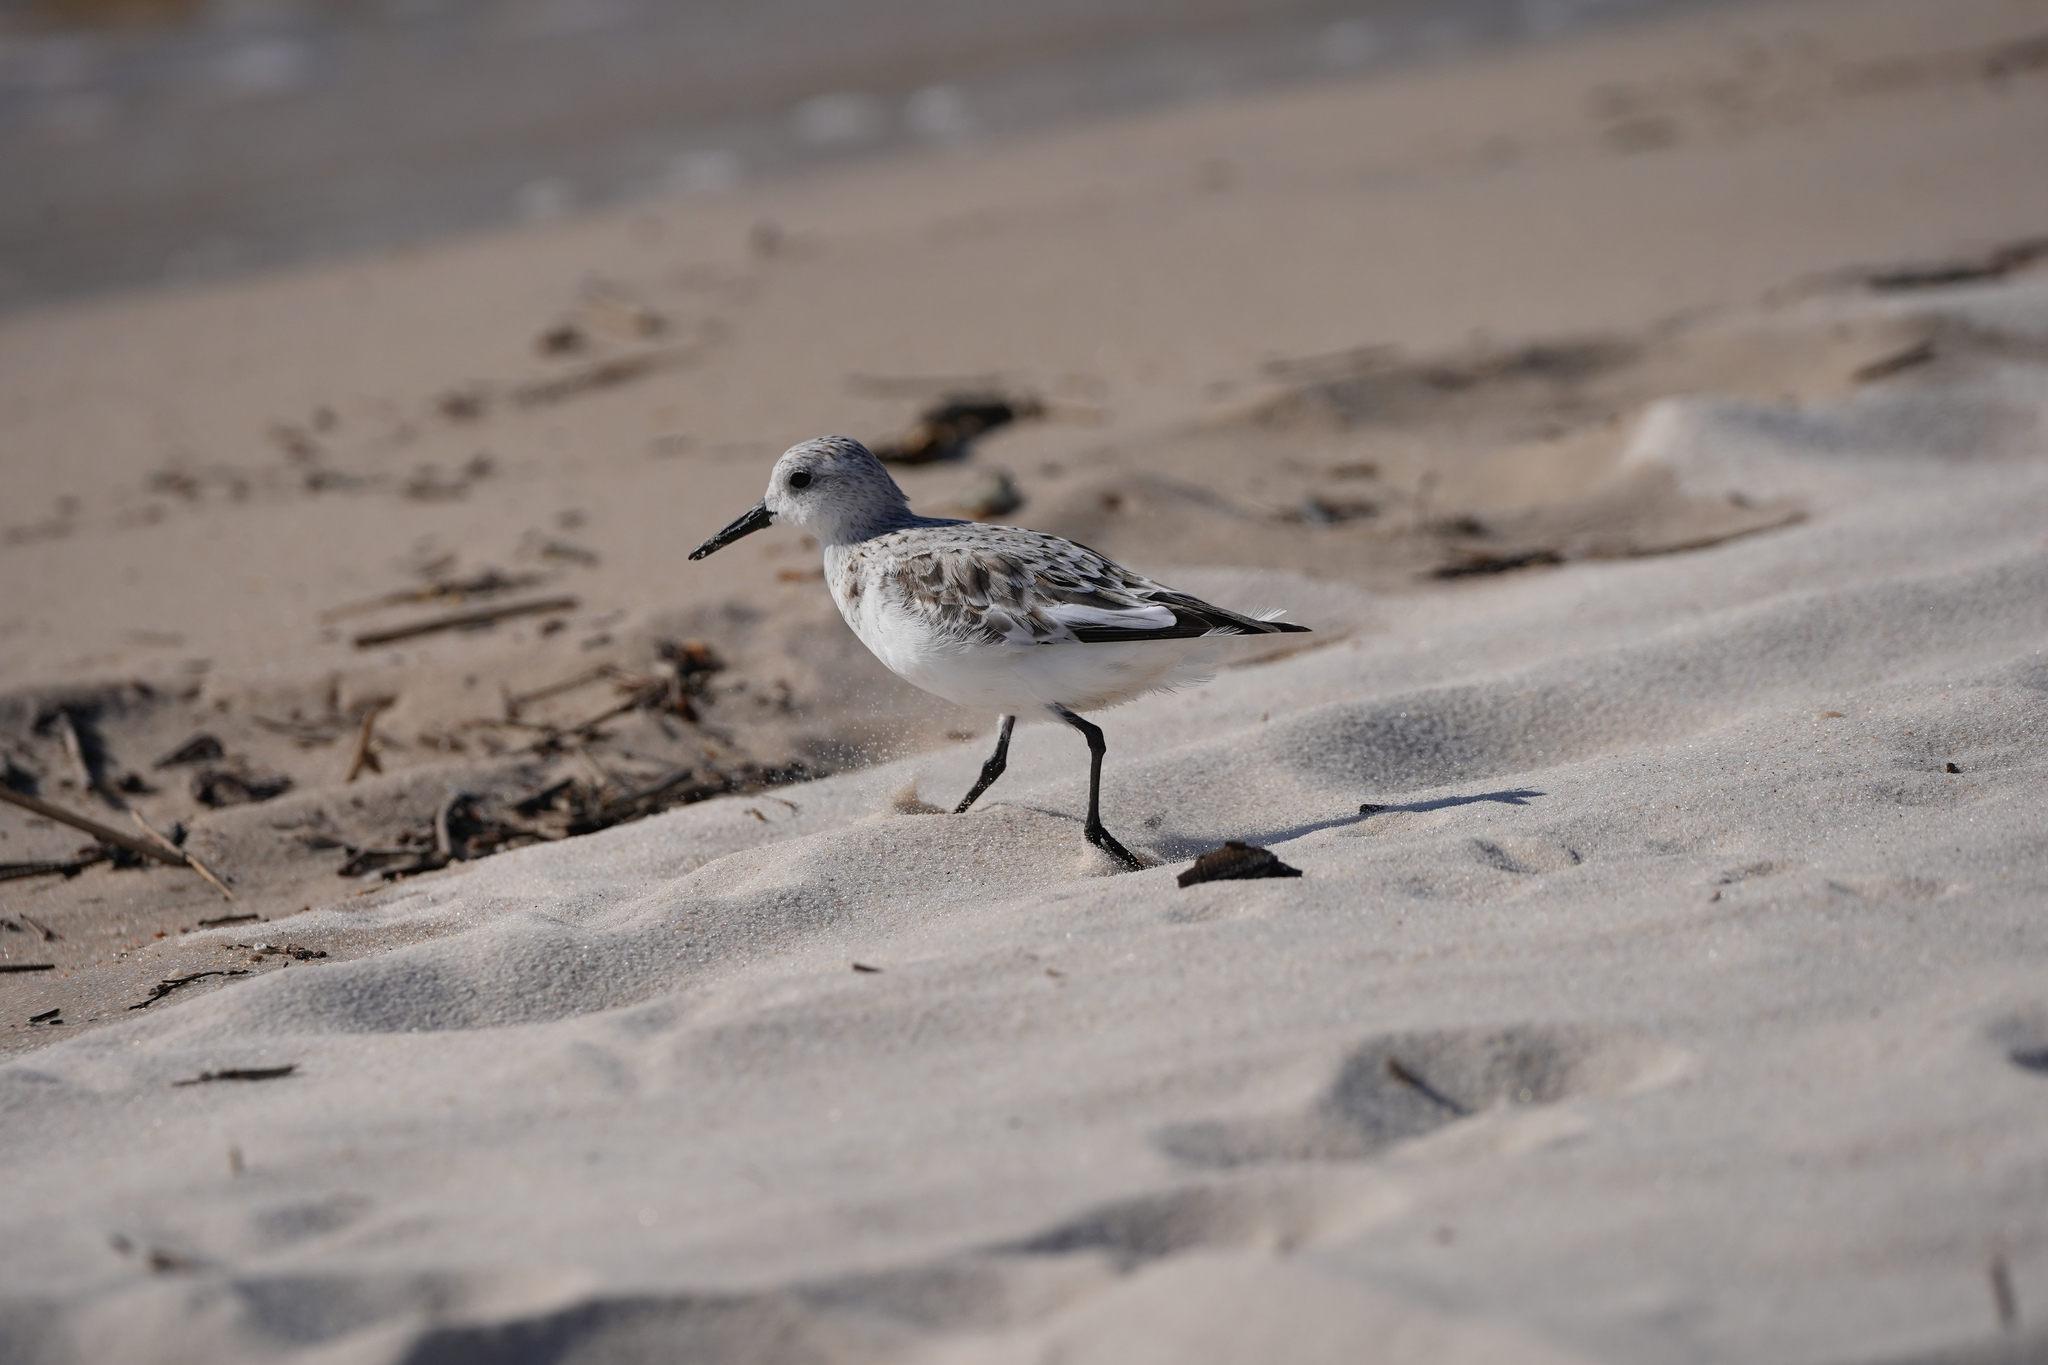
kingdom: Animalia
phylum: Chordata
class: Aves
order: Charadriiformes
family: Scolopacidae
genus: Calidris
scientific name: Calidris alba
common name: Sanderling
